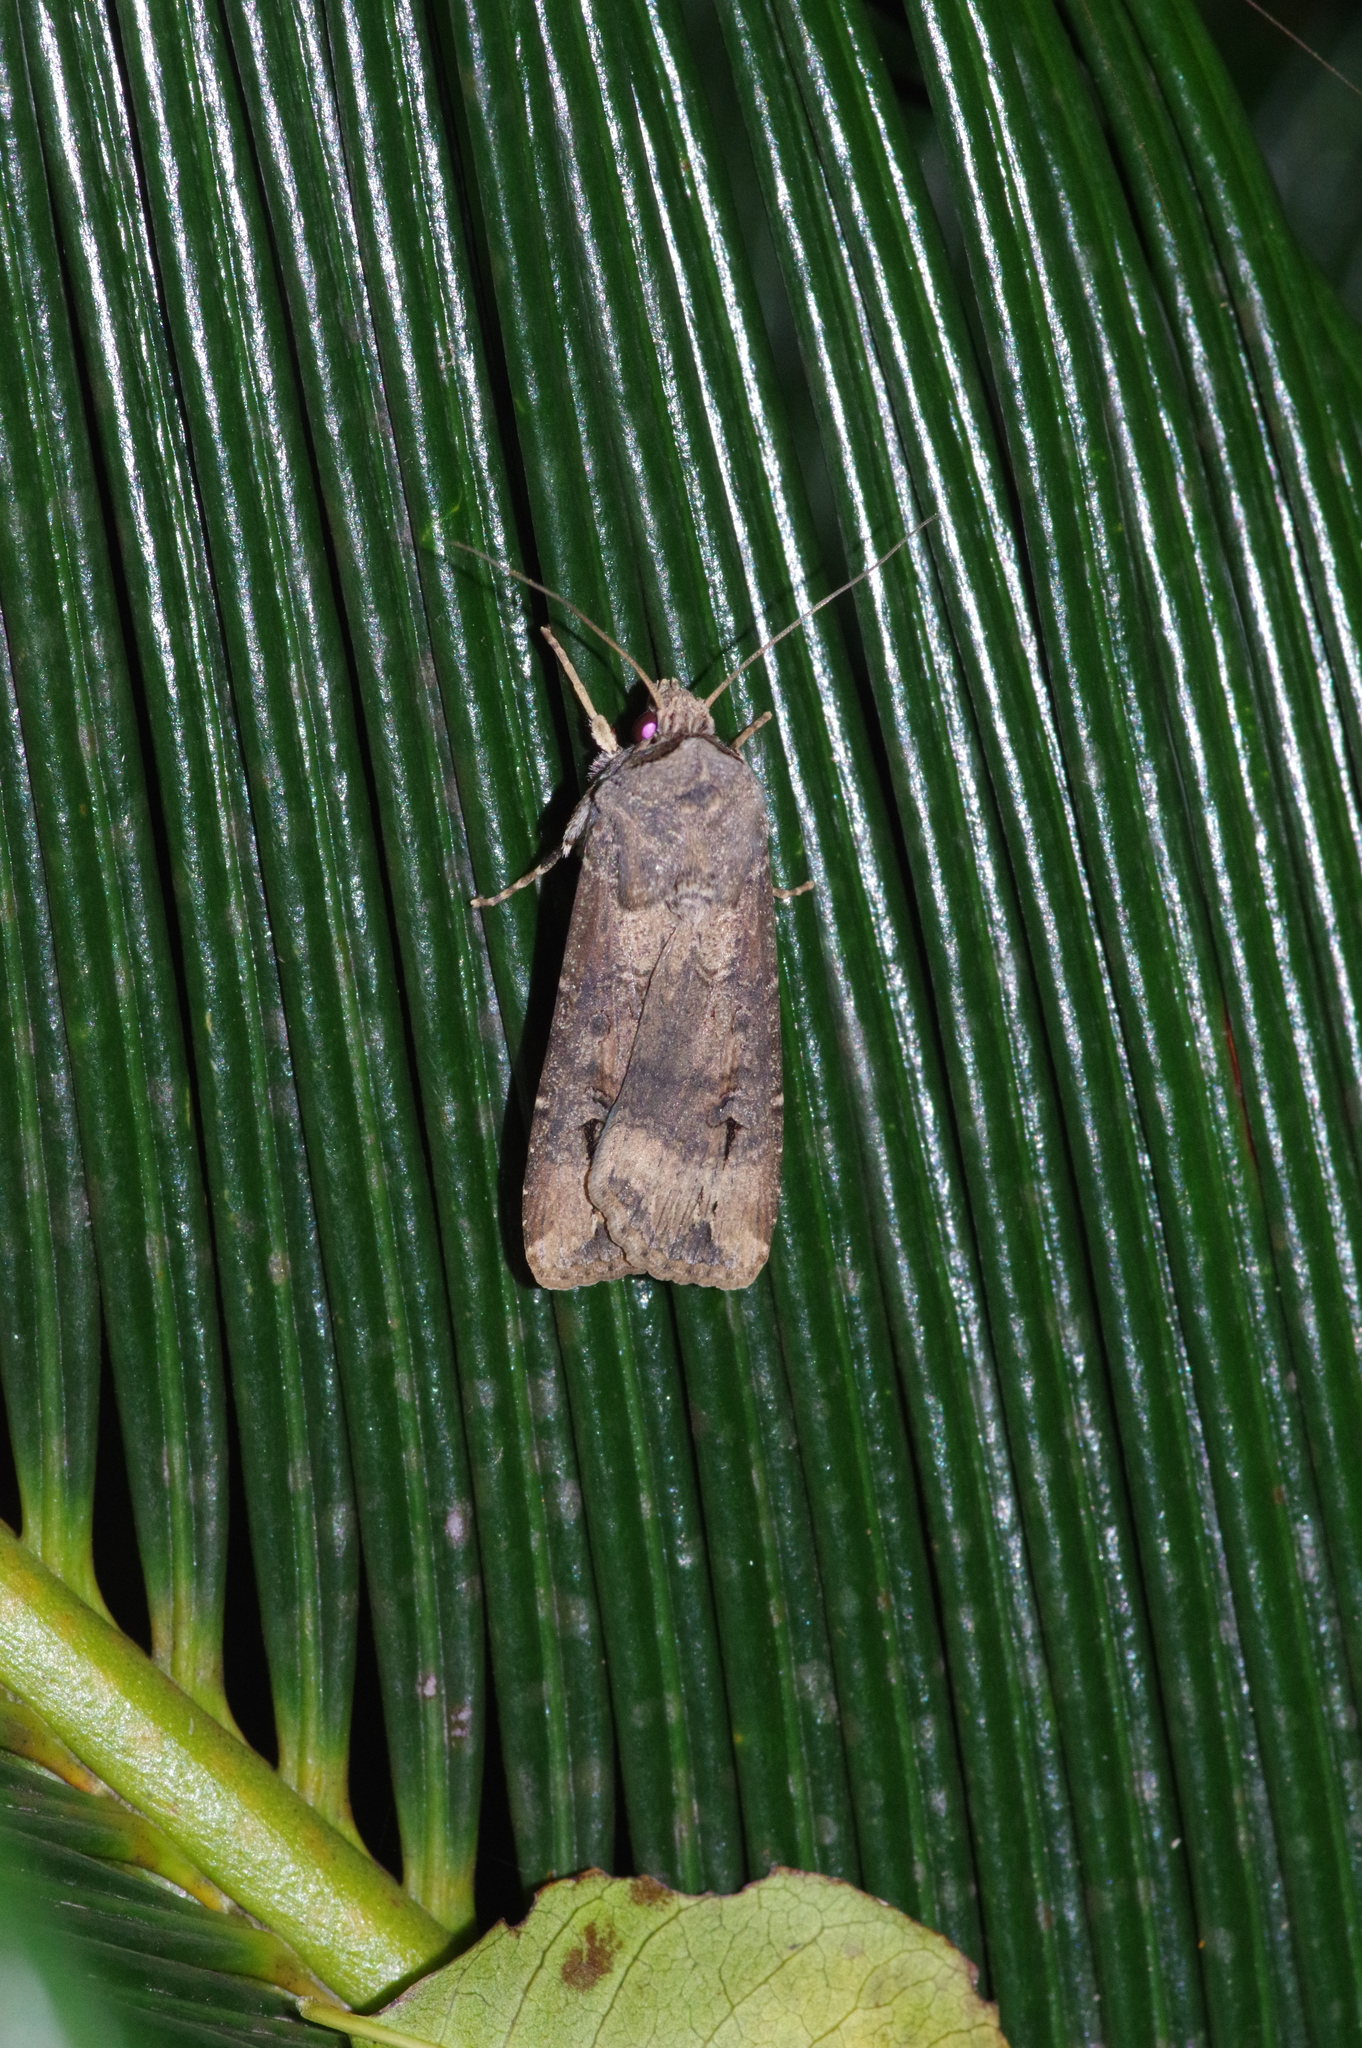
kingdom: Animalia
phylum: Arthropoda
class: Insecta
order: Lepidoptera
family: Noctuidae
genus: Agrotis
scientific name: Agrotis ipsilon
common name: Dark sword-grass
